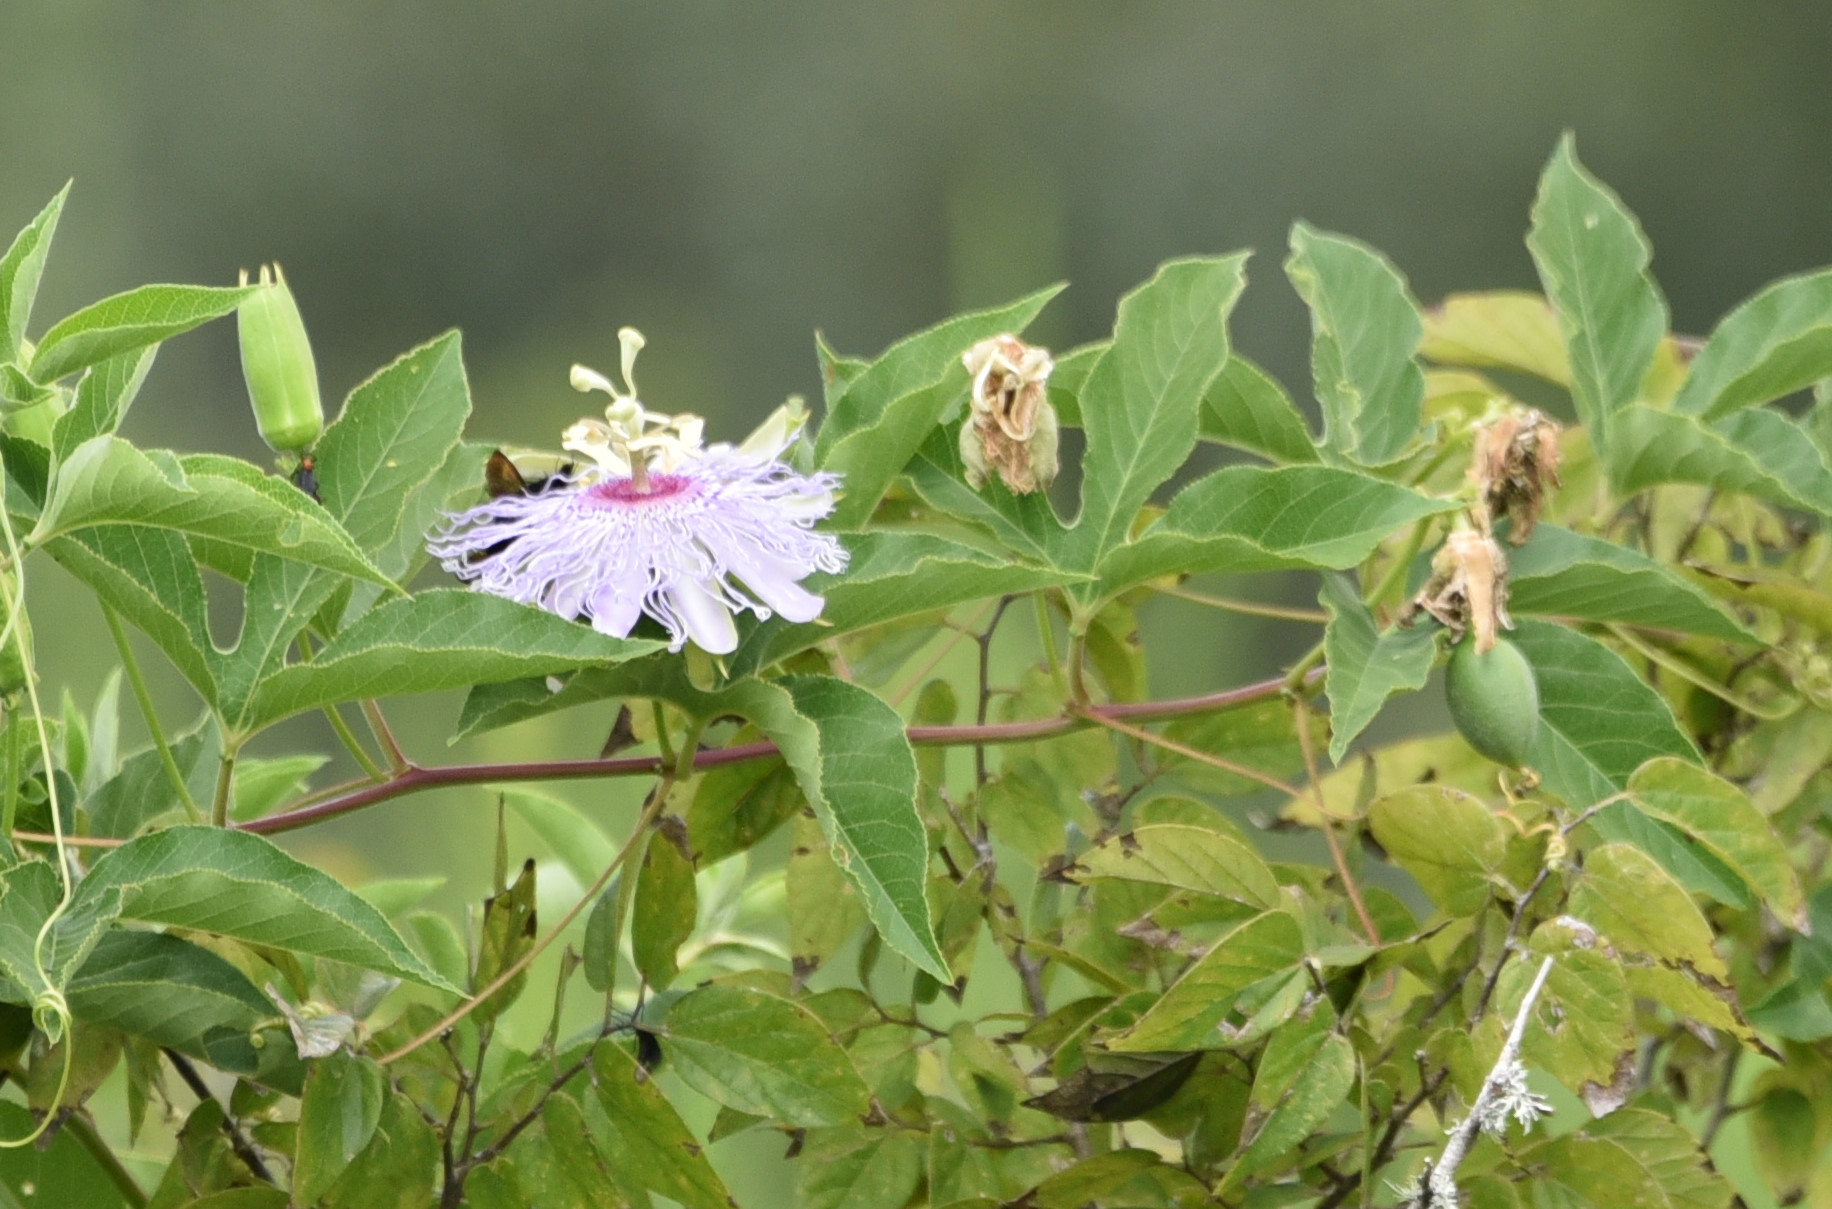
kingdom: Plantae
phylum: Tracheophyta
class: Magnoliopsida
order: Malpighiales
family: Passifloraceae
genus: Passiflora
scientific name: Passiflora incarnata
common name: Apricot-vine
